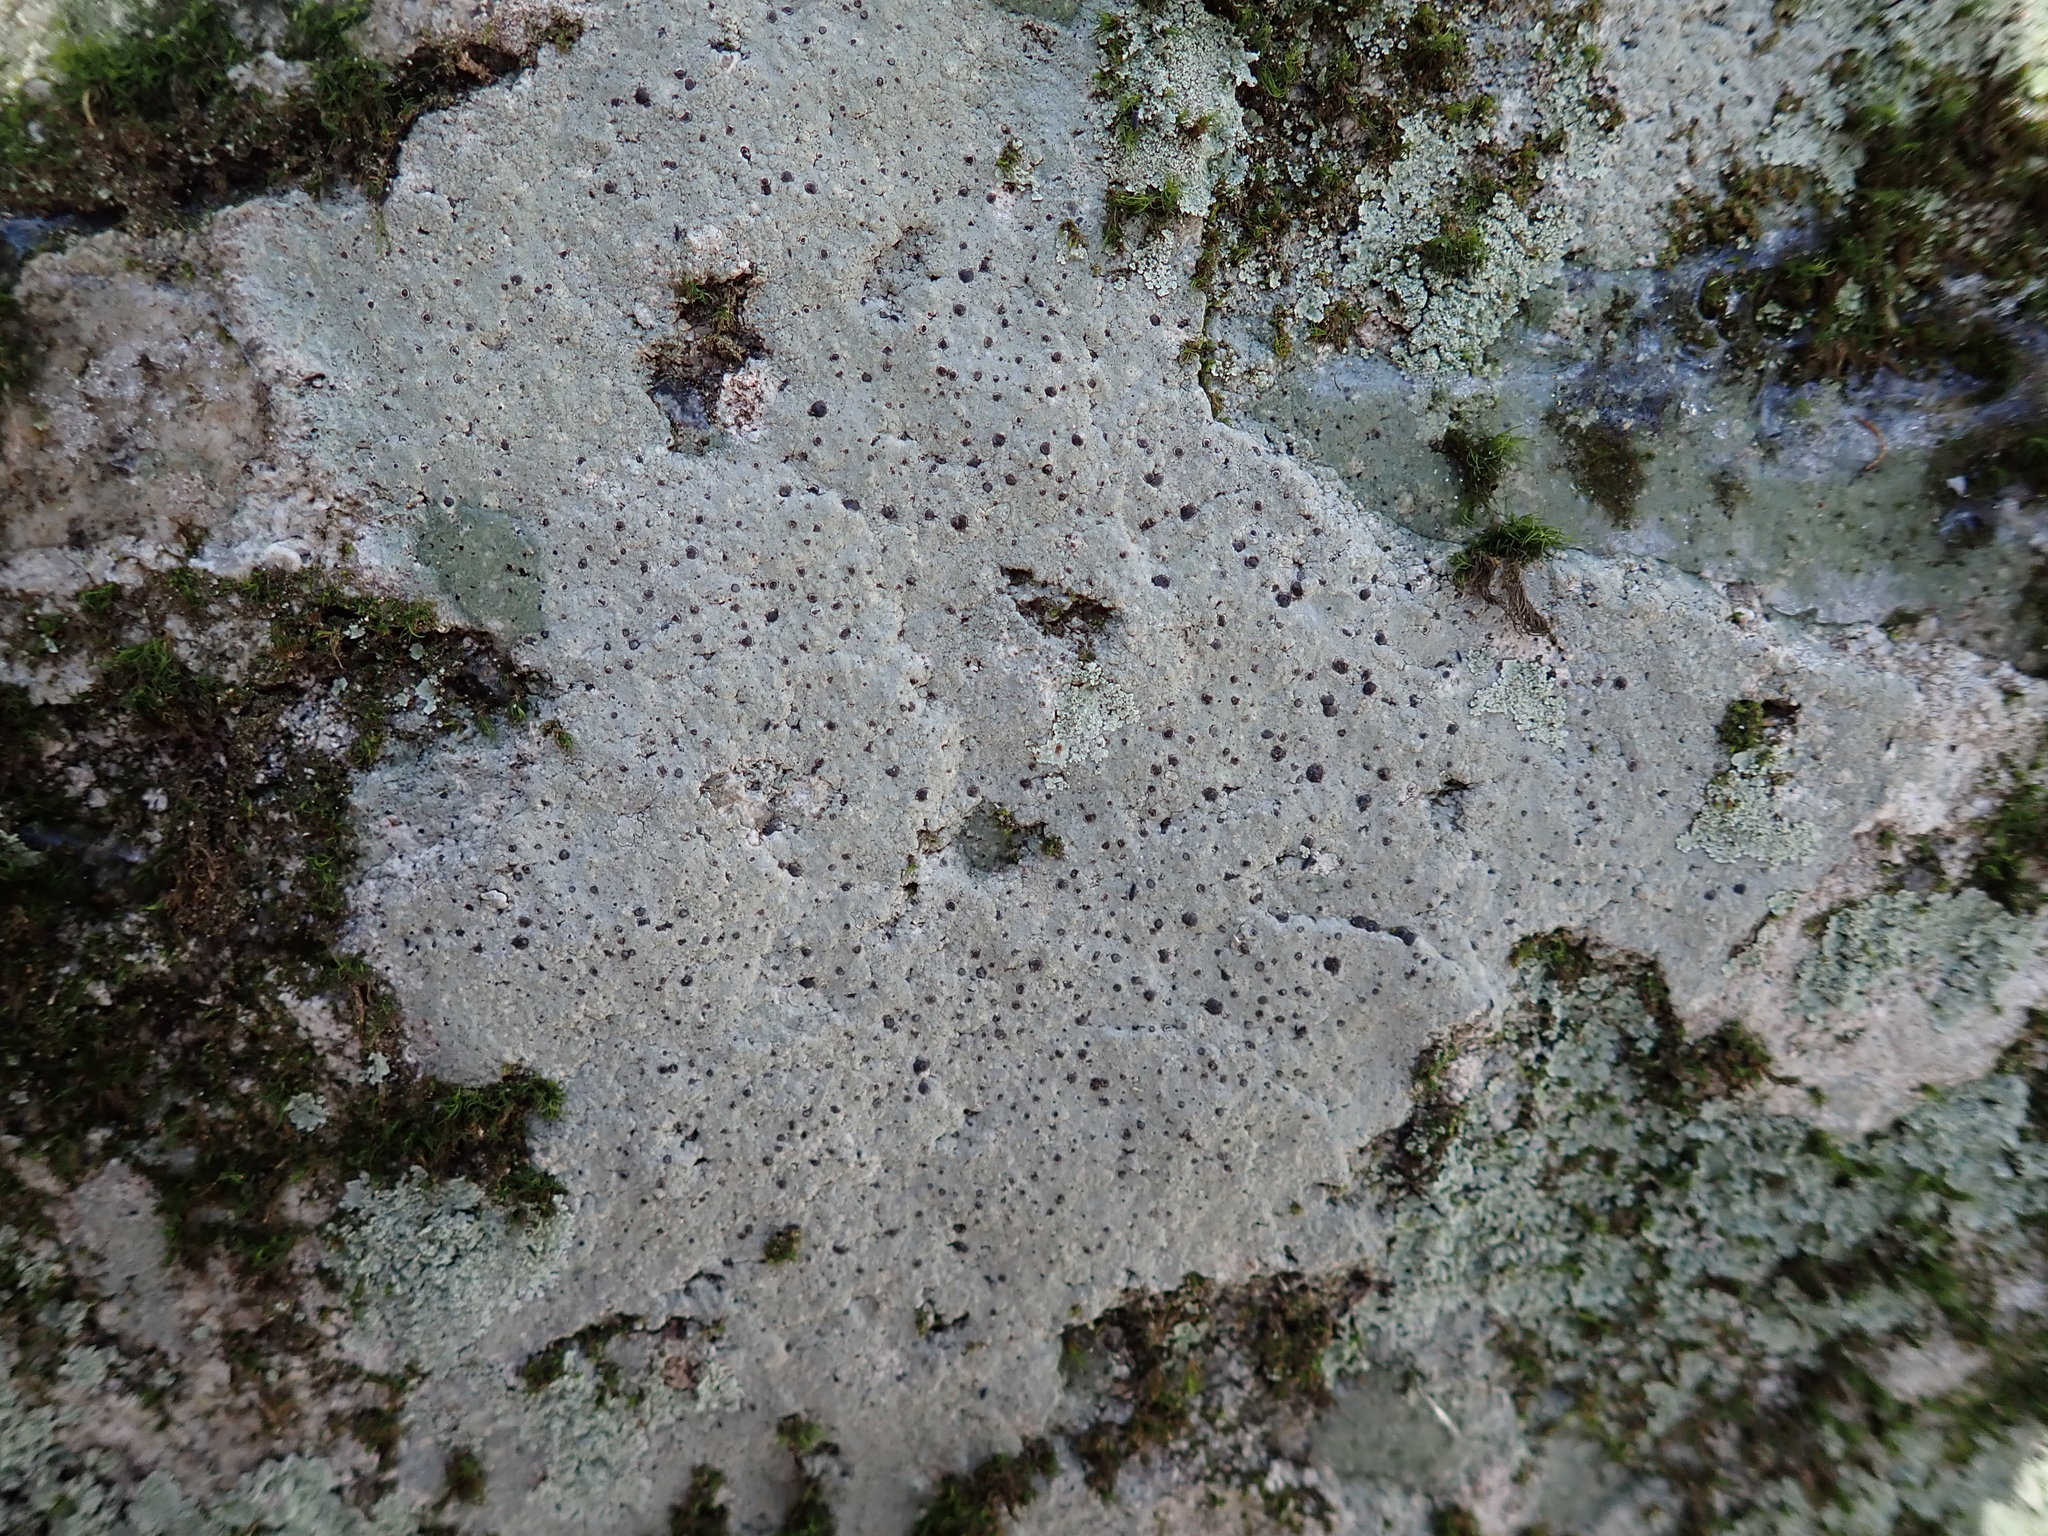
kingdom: Fungi
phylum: Ascomycota
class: Lecanoromycetes
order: Lecideales
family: Lecideaceae
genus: Porpidia
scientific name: Porpidia albocaerulescens
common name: Smokey-eyed boulder lichen
